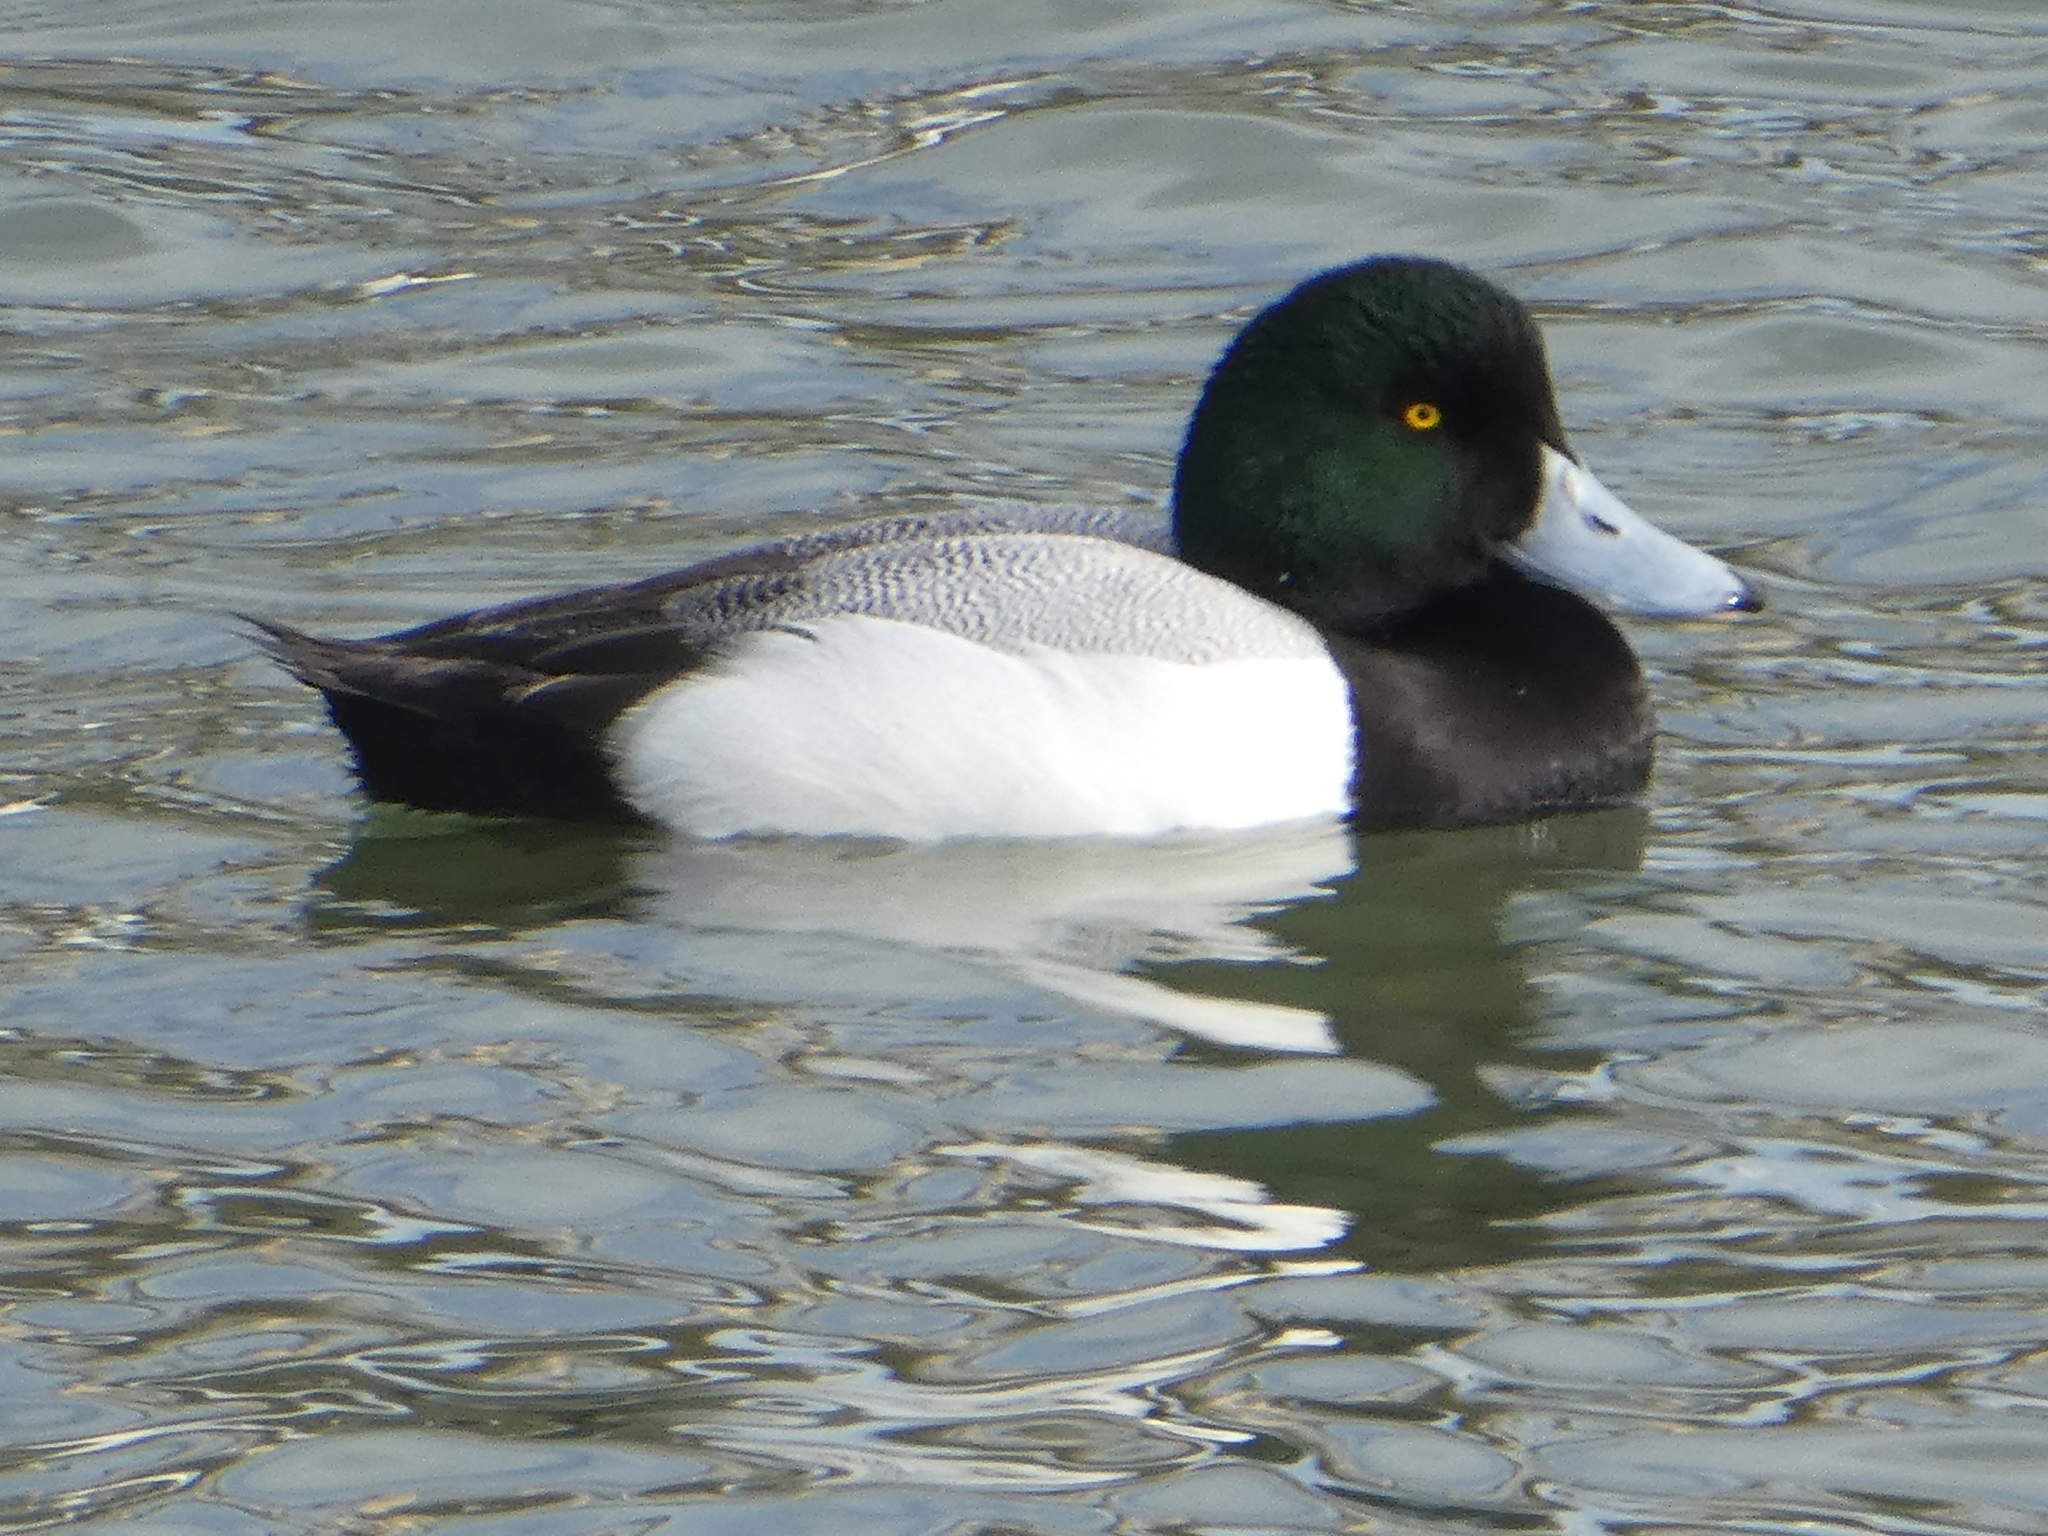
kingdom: Animalia
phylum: Chordata
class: Aves
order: Anseriformes
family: Anatidae
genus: Aythya
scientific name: Aythya marila
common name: Greater scaup
